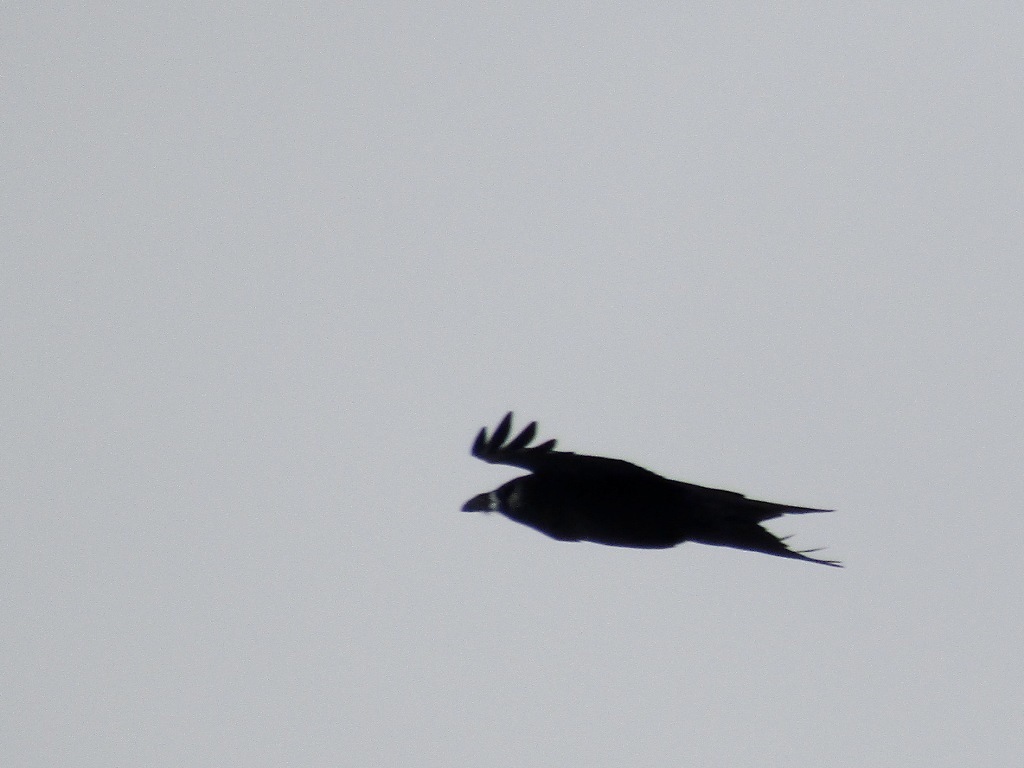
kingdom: Animalia
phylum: Chordata
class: Aves
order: Passeriformes
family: Corvidae
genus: Corvus
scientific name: Corvus corax
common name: Common raven
